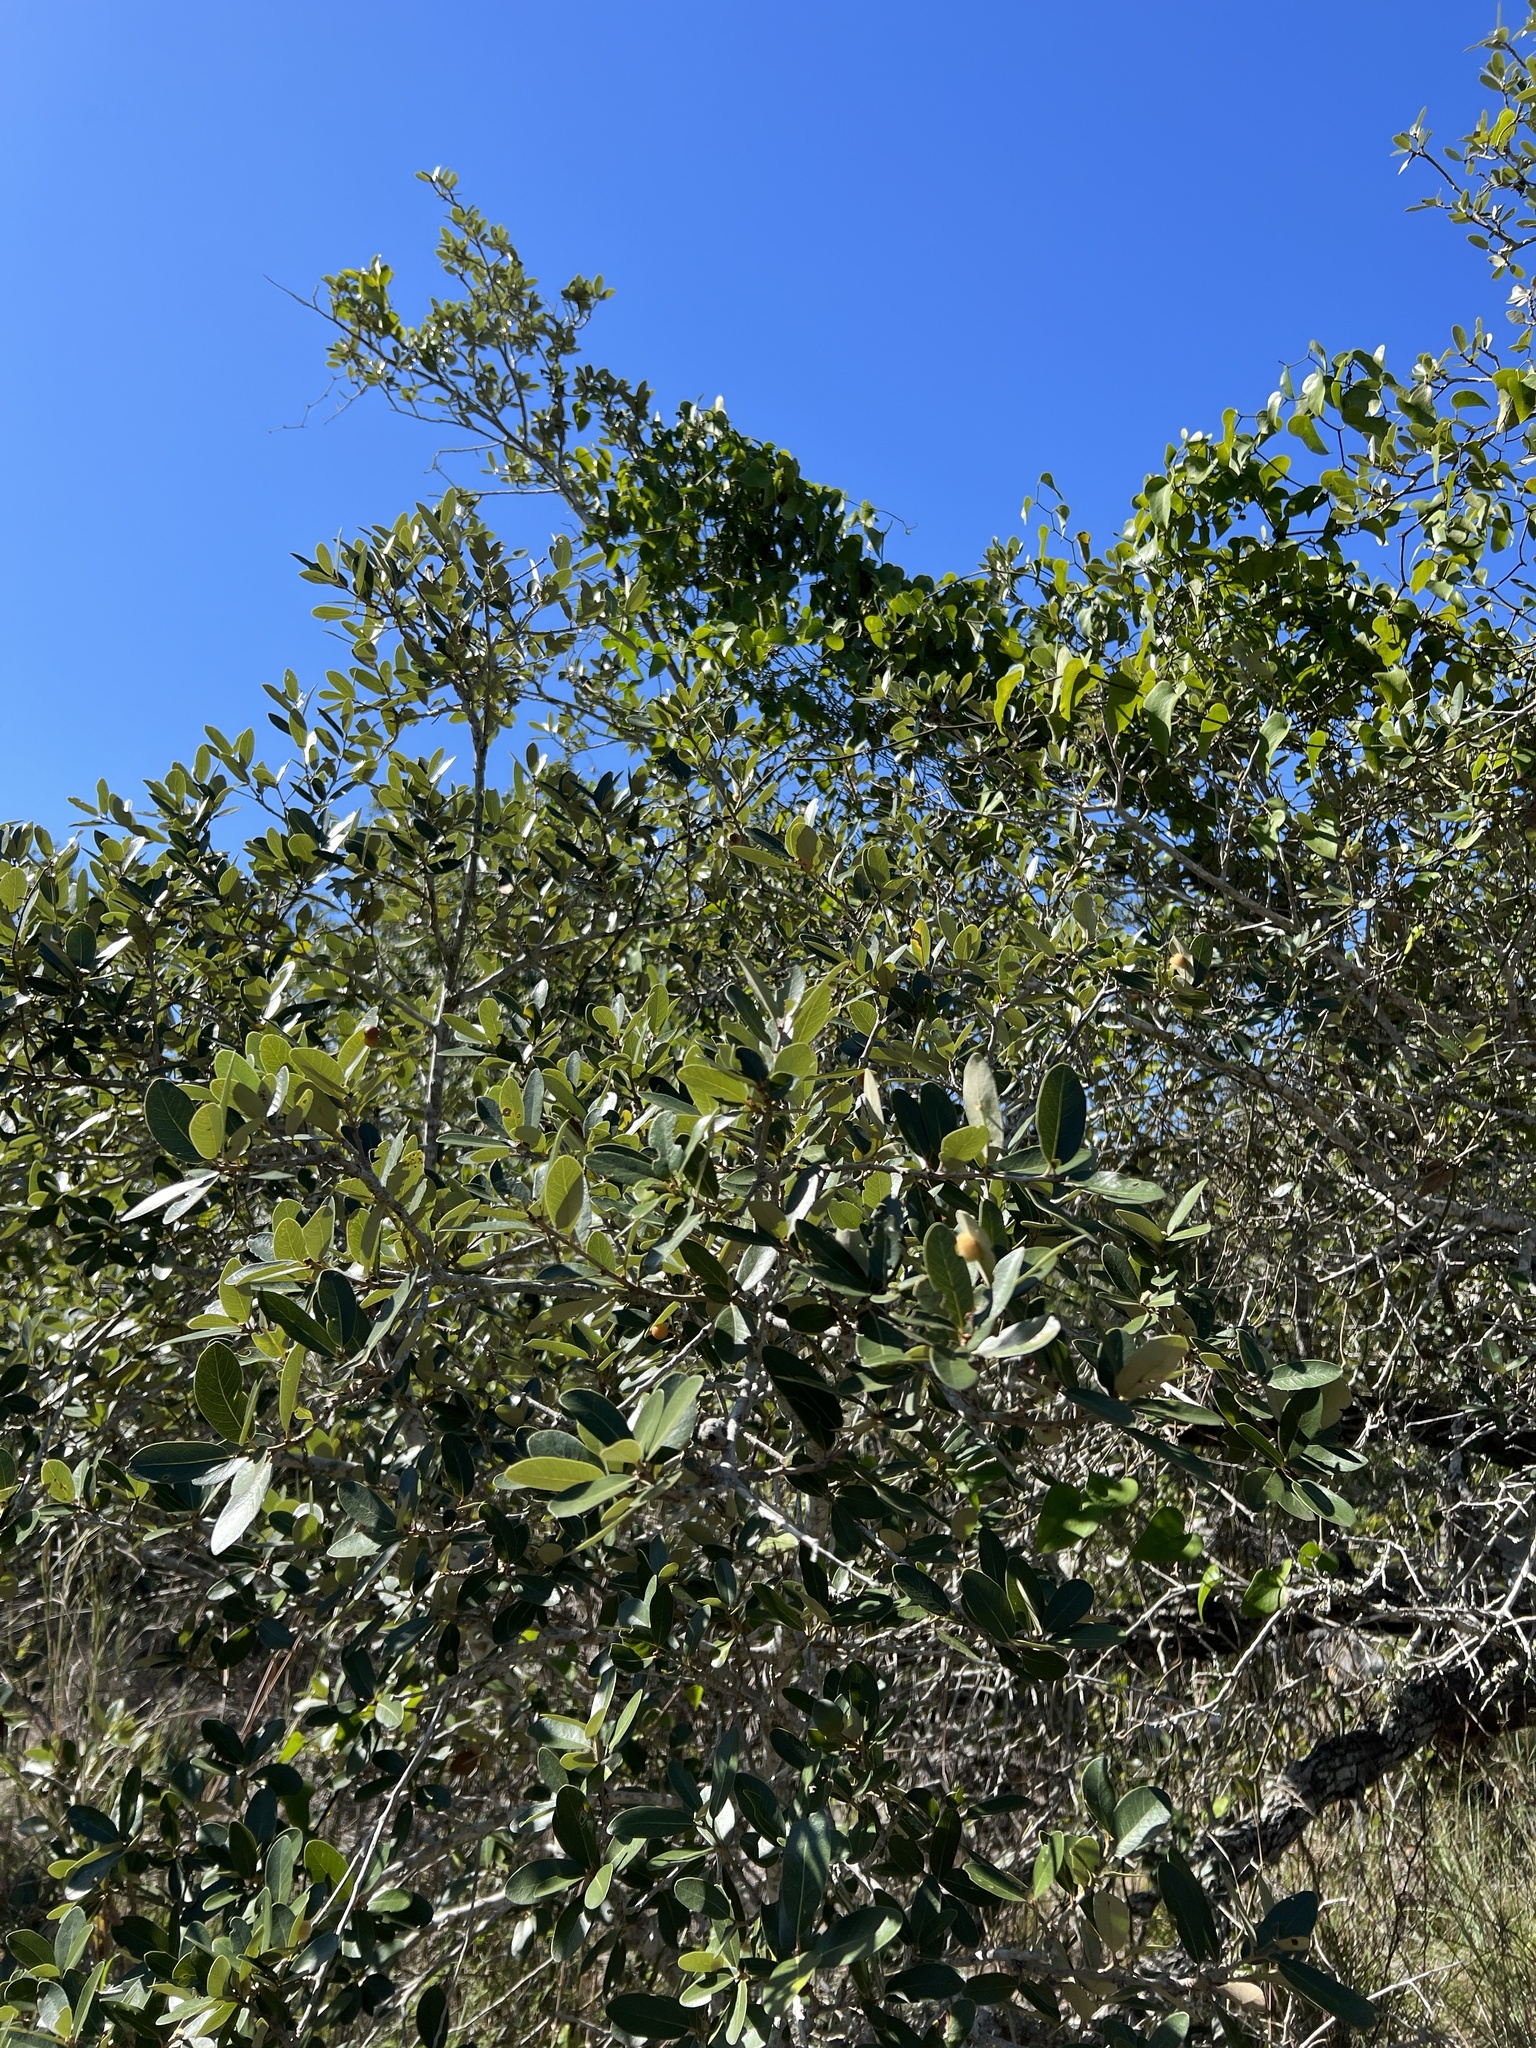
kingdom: Plantae
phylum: Tracheophyta
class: Magnoliopsida
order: Fagales
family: Fagaceae
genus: Quercus
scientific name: Quercus virginiana
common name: Southern live oak
